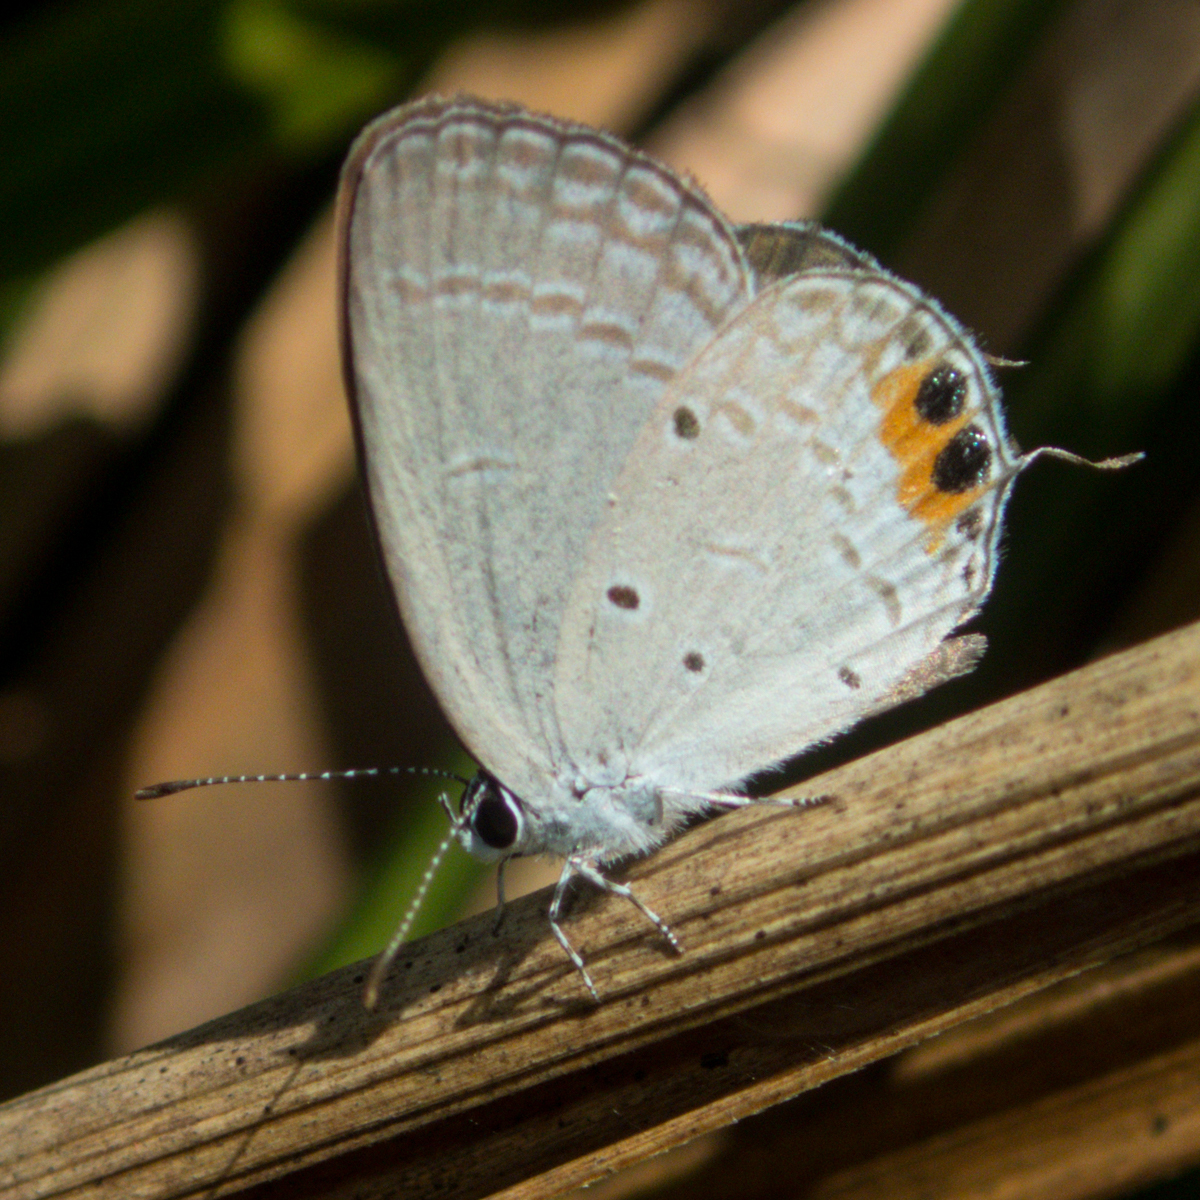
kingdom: Animalia
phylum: Arthropoda
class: Insecta
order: Lepidoptera
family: Lycaenidae
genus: Everes
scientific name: Everes lacturnus
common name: Orange-tipped pea-blue
